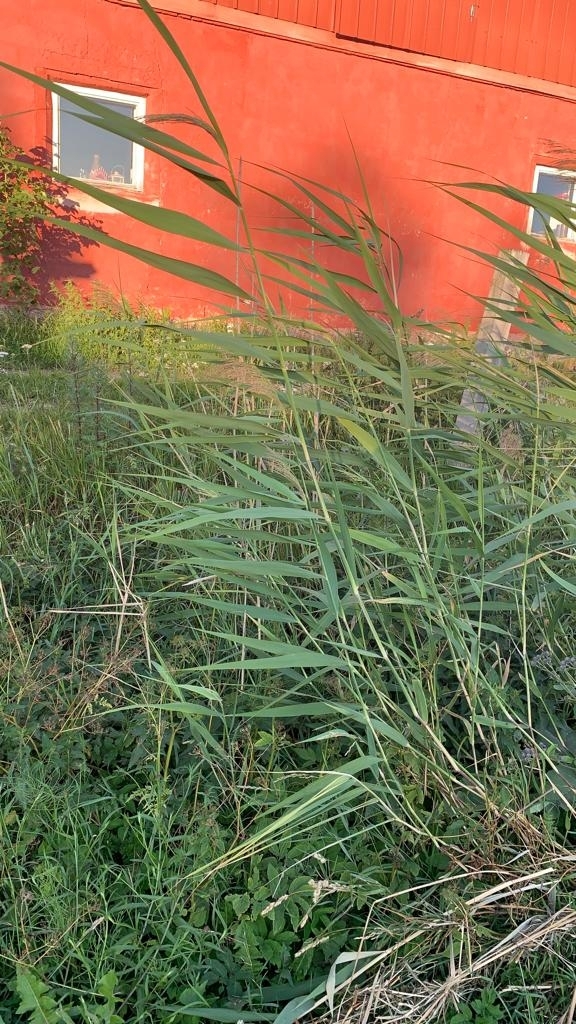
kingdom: Plantae
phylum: Tracheophyta
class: Liliopsida
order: Poales
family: Poaceae
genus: Phragmites
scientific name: Phragmites australis
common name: Common reed
